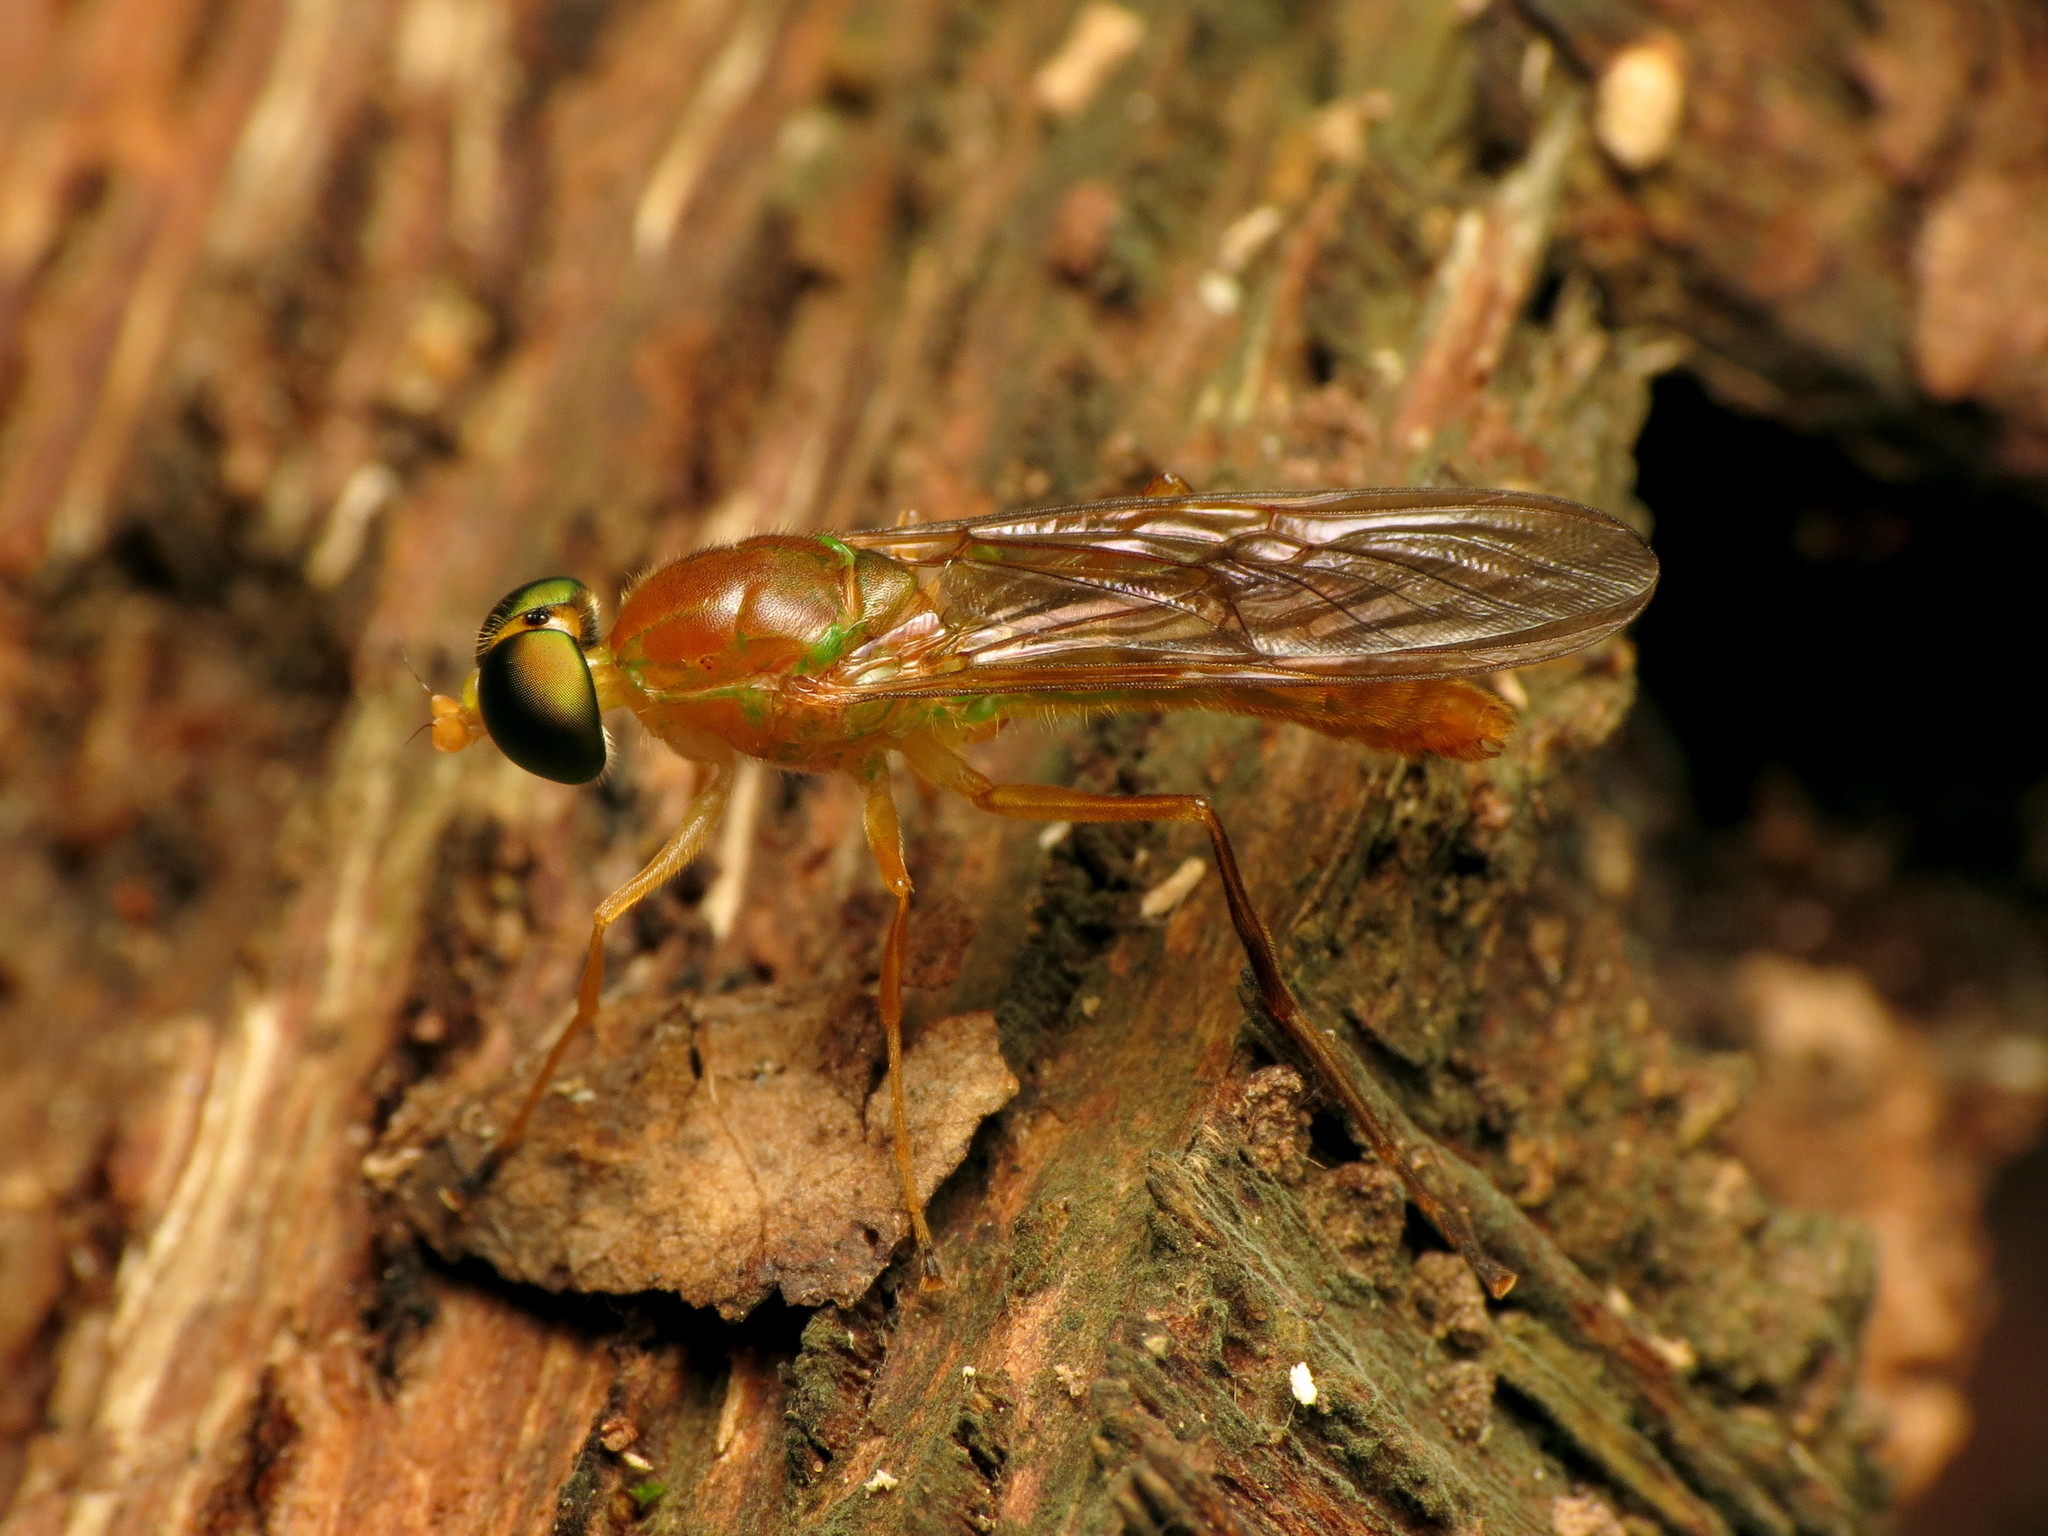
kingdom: Animalia
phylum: Arthropoda
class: Insecta
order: Diptera
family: Stratiomyidae
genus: Ptecticus
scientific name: Ptecticus trivittatus
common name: Compost fly
